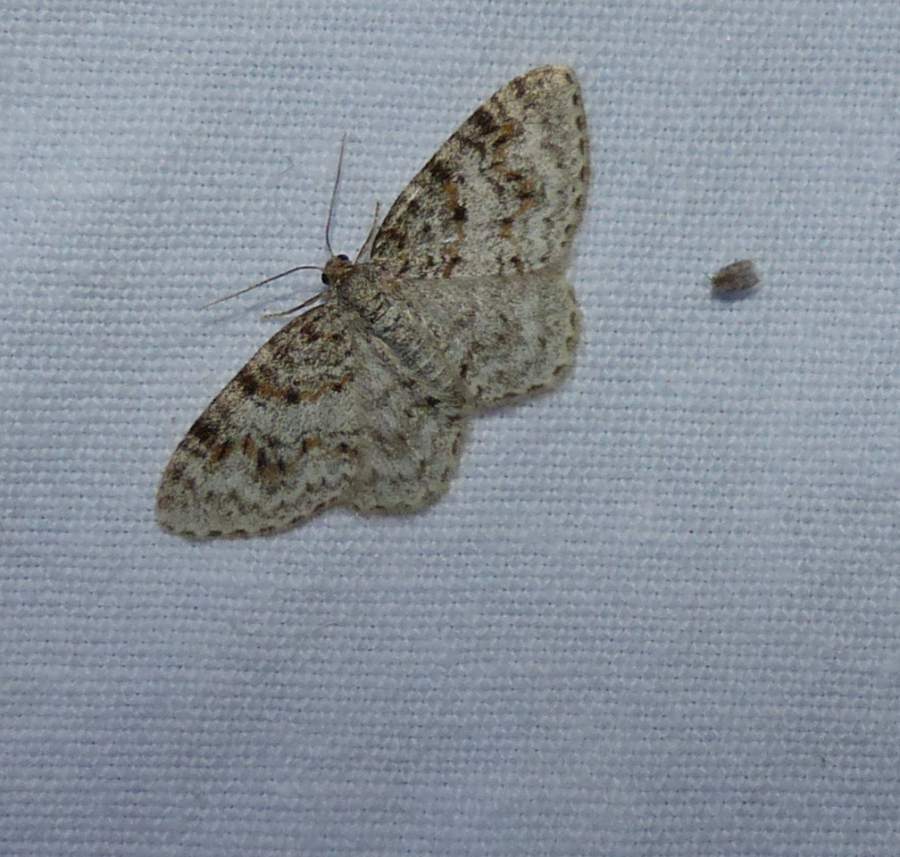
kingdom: Animalia
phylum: Arthropoda
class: Insecta
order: Lepidoptera
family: Geometridae
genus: Hydrelia
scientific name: Hydrelia inornata
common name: Unadorned carpet moth
